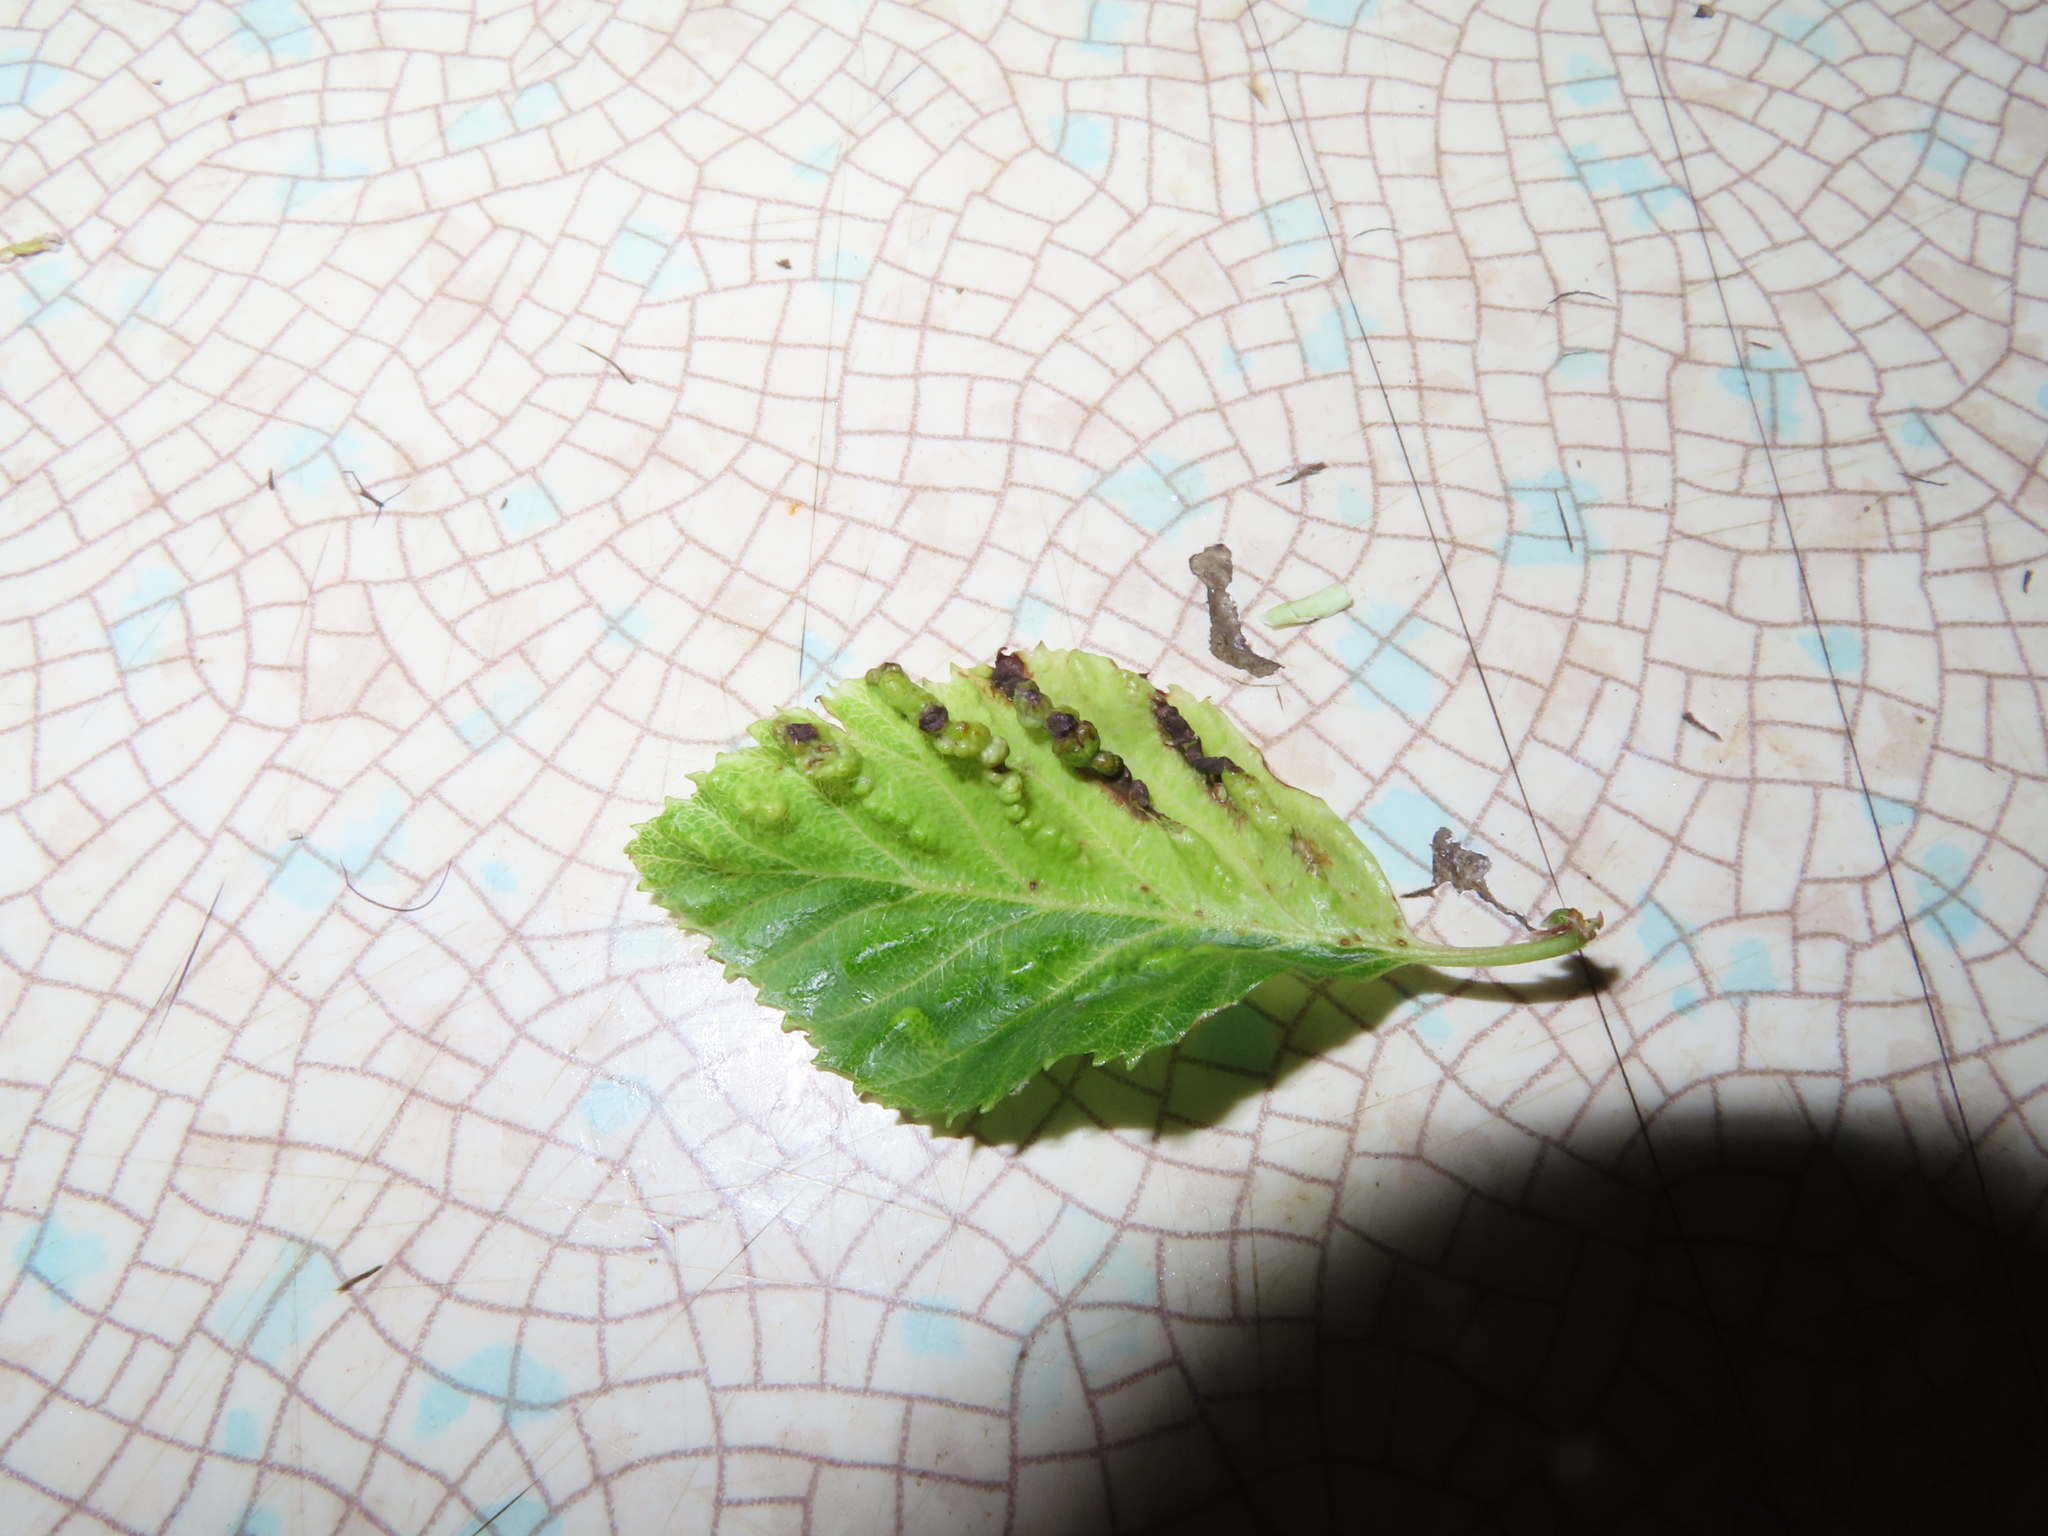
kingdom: Animalia
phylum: Arthropoda
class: Insecta
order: Hemiptera
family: Aphididae
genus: Hamamelistes
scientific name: Hamamelistes spinosus
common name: Witch hazel gall aphid
